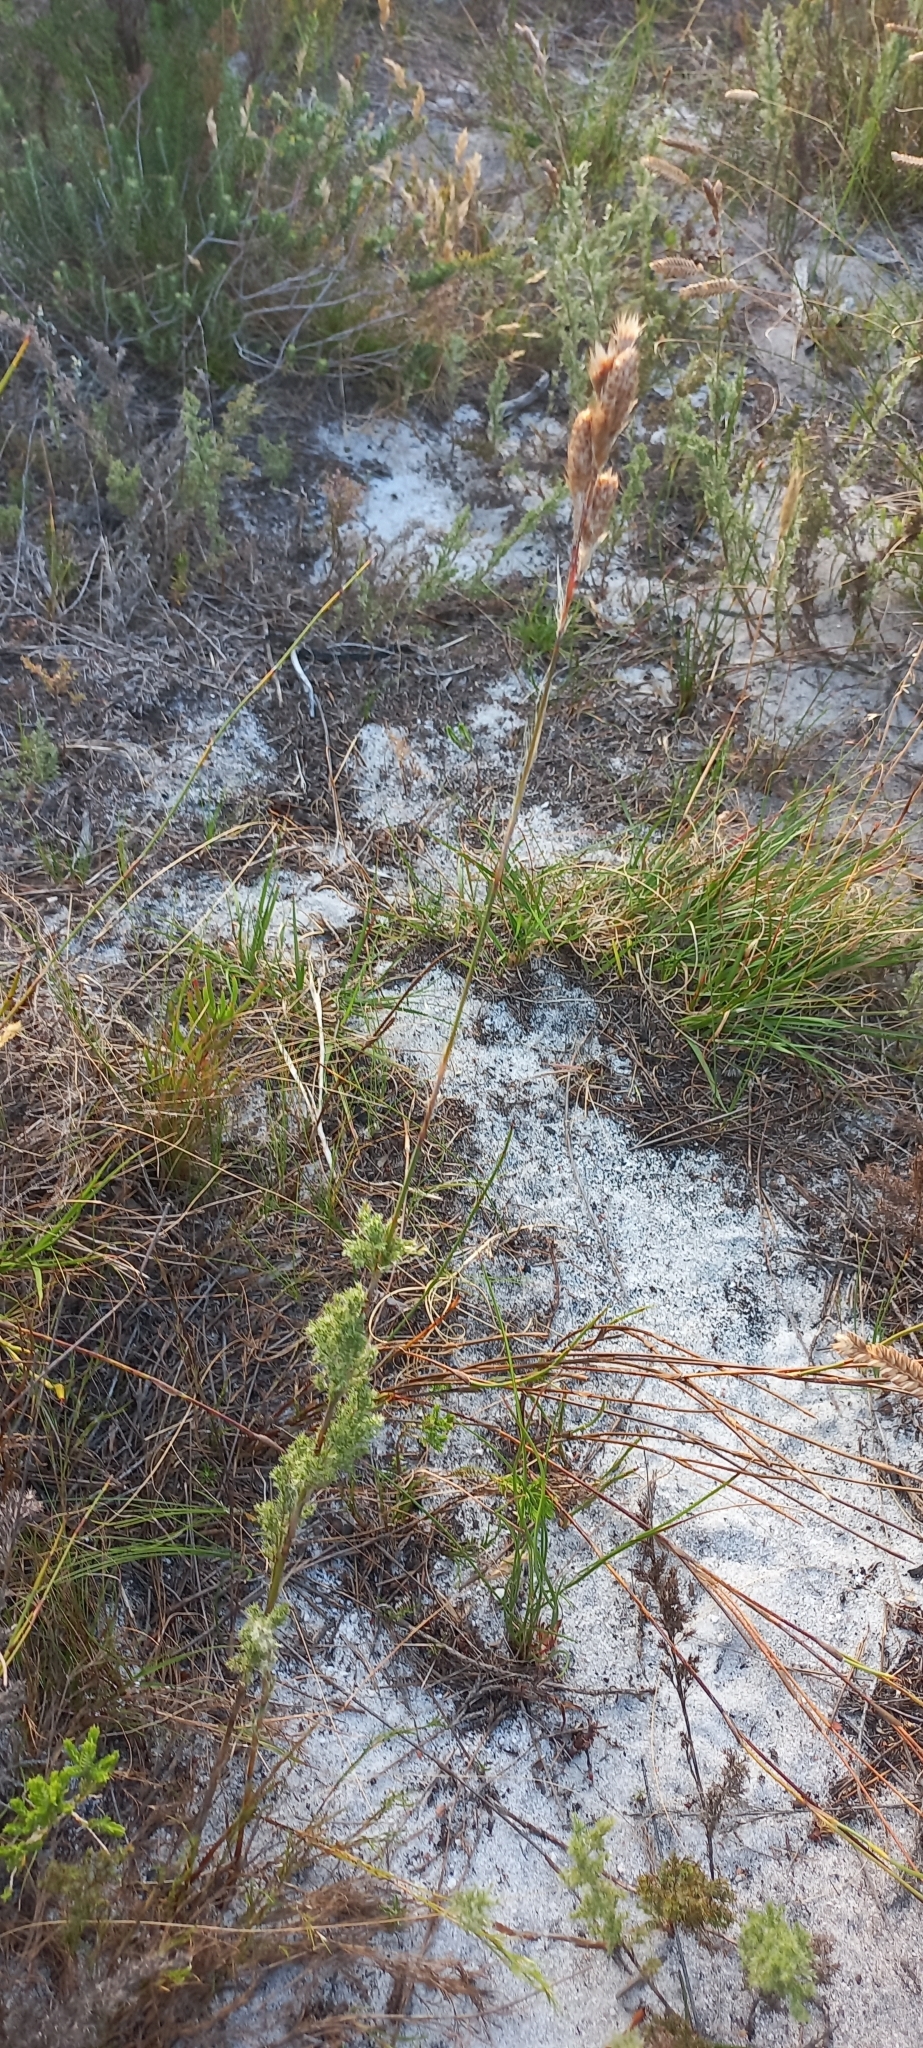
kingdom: Plantae
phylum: Tracheophyta
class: Liliopsida
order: Poales
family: Restionaceae
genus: Thamnochortus
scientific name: Thamnochortus fruticosus
